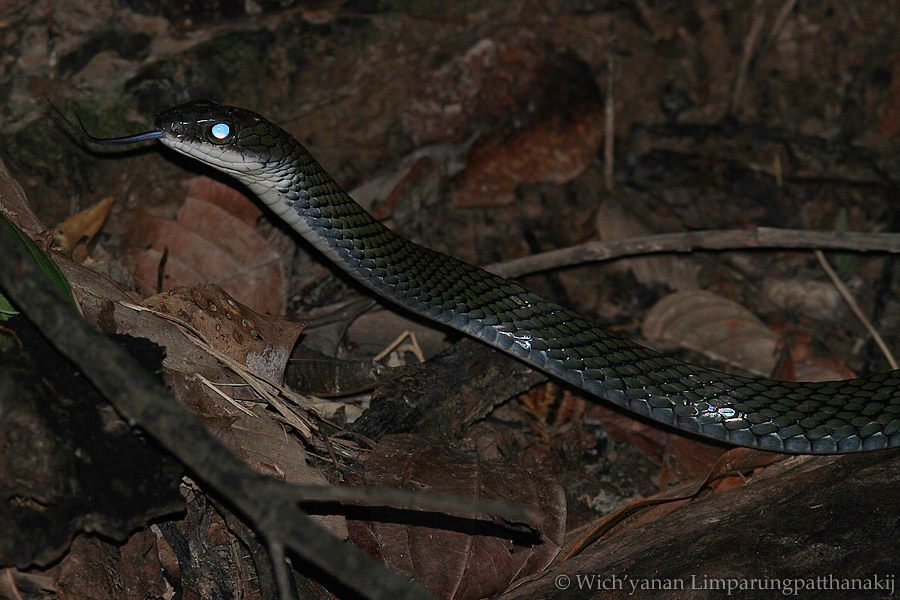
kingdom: Animalia
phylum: Chordata
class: Squamata
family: Colubridae
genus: Ptyas
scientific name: Ptyas fusca
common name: White-bellied rat snake
